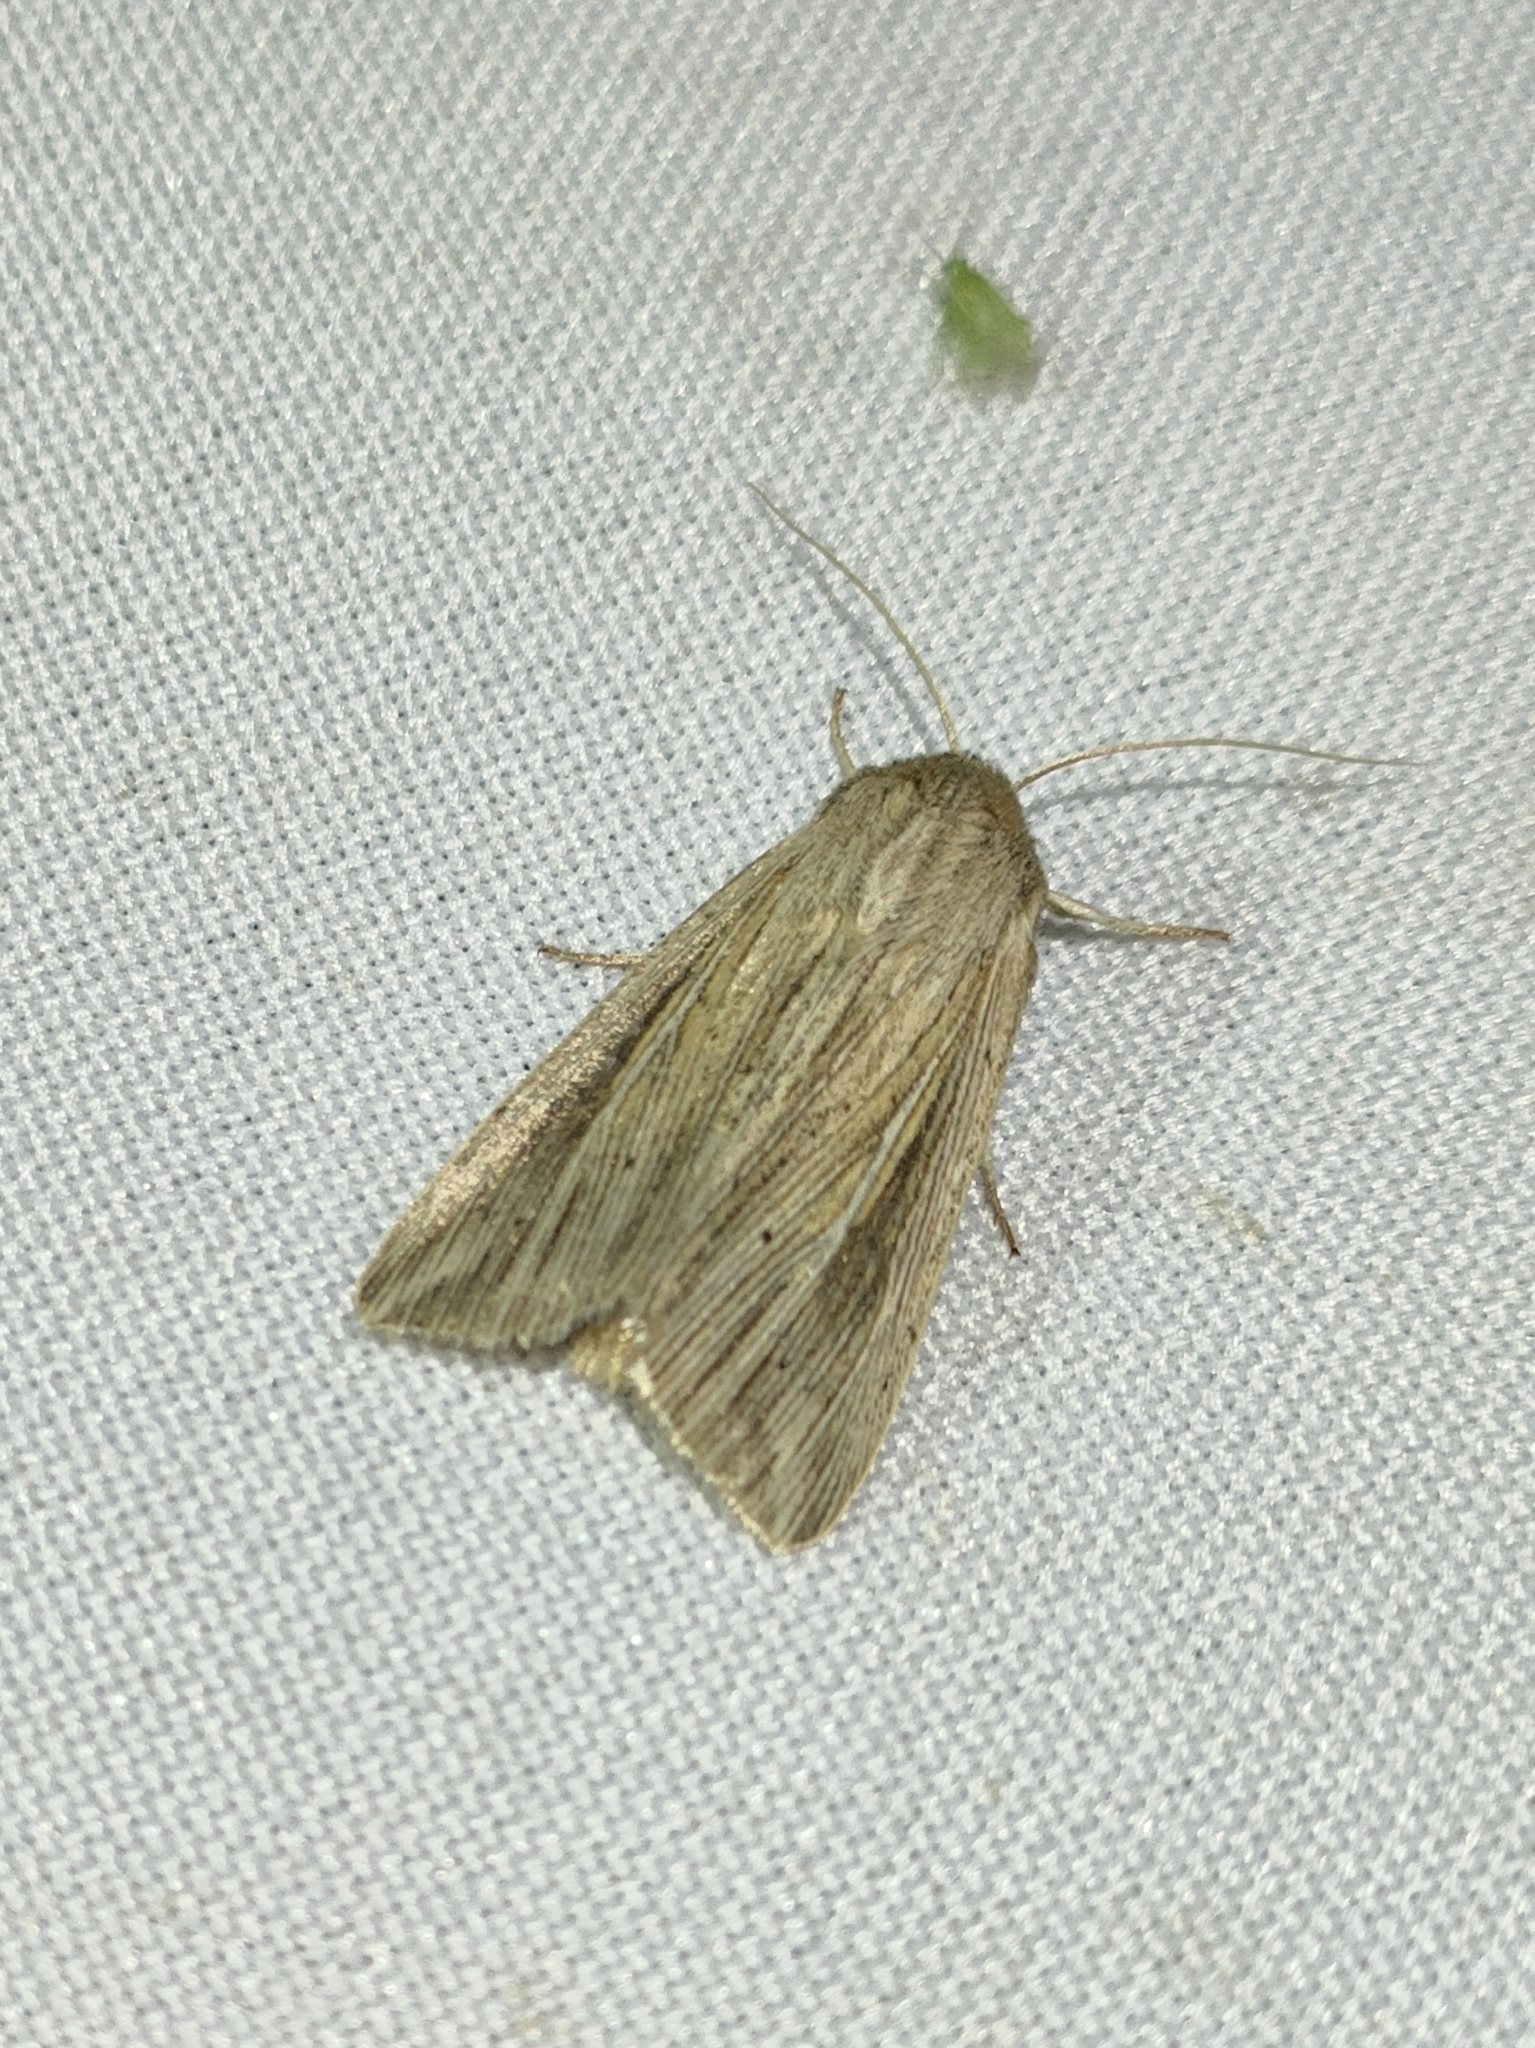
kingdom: Animalia
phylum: Arthropoda
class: Insecta
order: Lepidoptera
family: Noctuidae
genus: Mythimna
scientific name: Mythimna riparia
